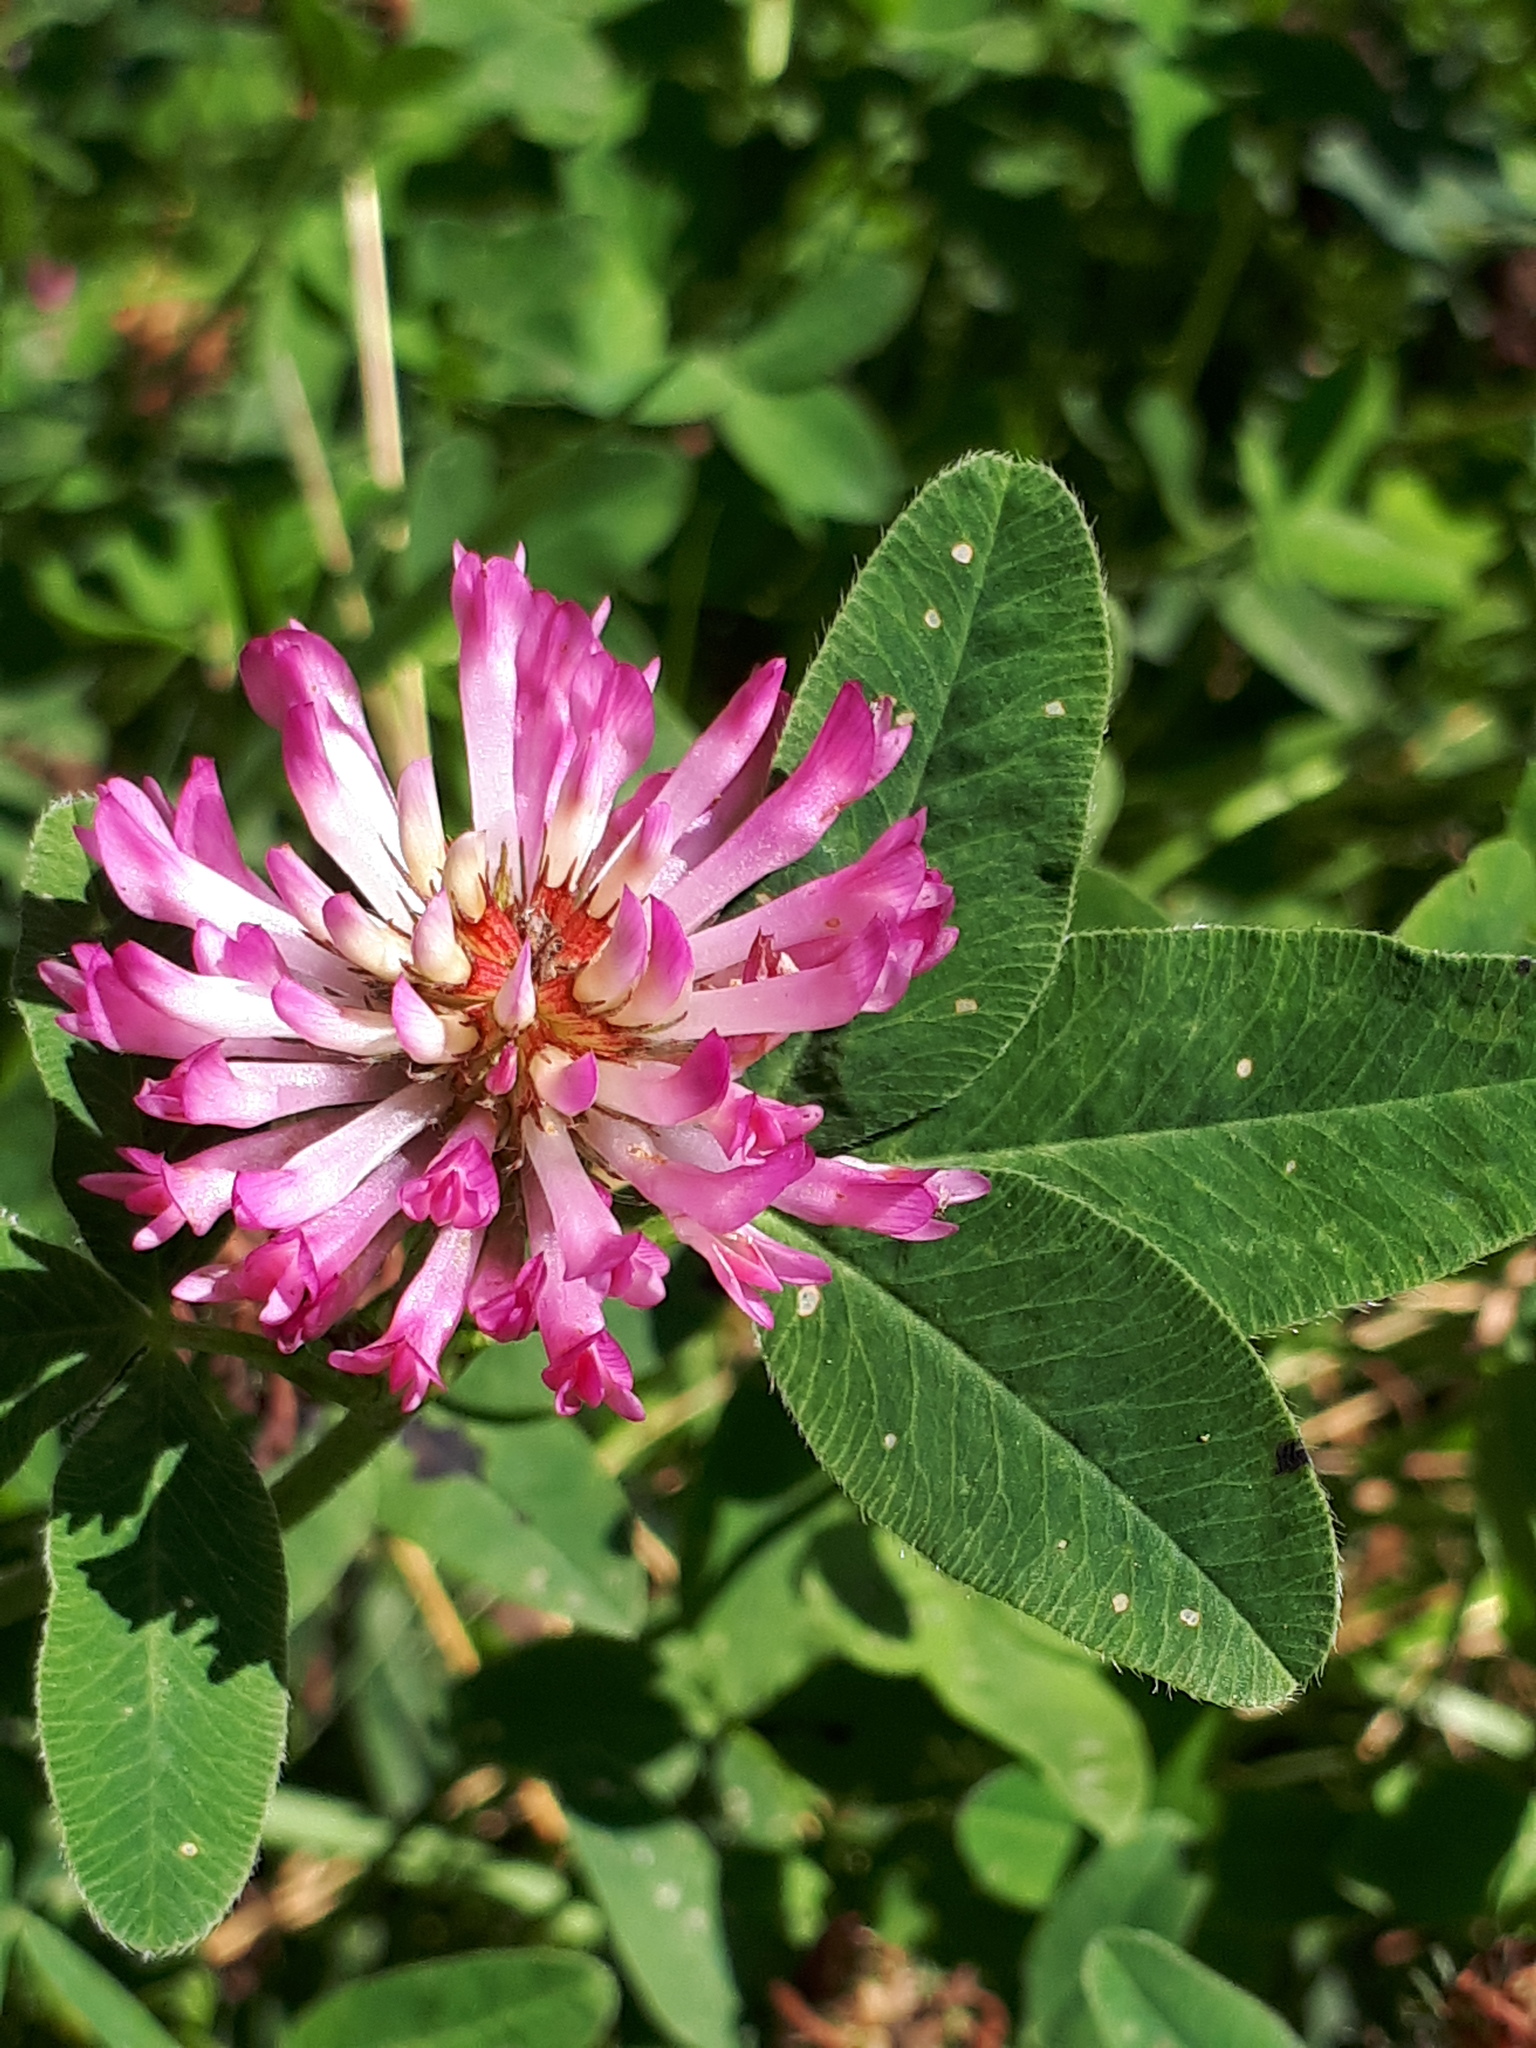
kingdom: Plantae
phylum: Tracheophyta
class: Magnoliopsida
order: Fabales
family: Fabaceae
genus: Trifolium
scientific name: Trifolium medium
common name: Zigzag clover
